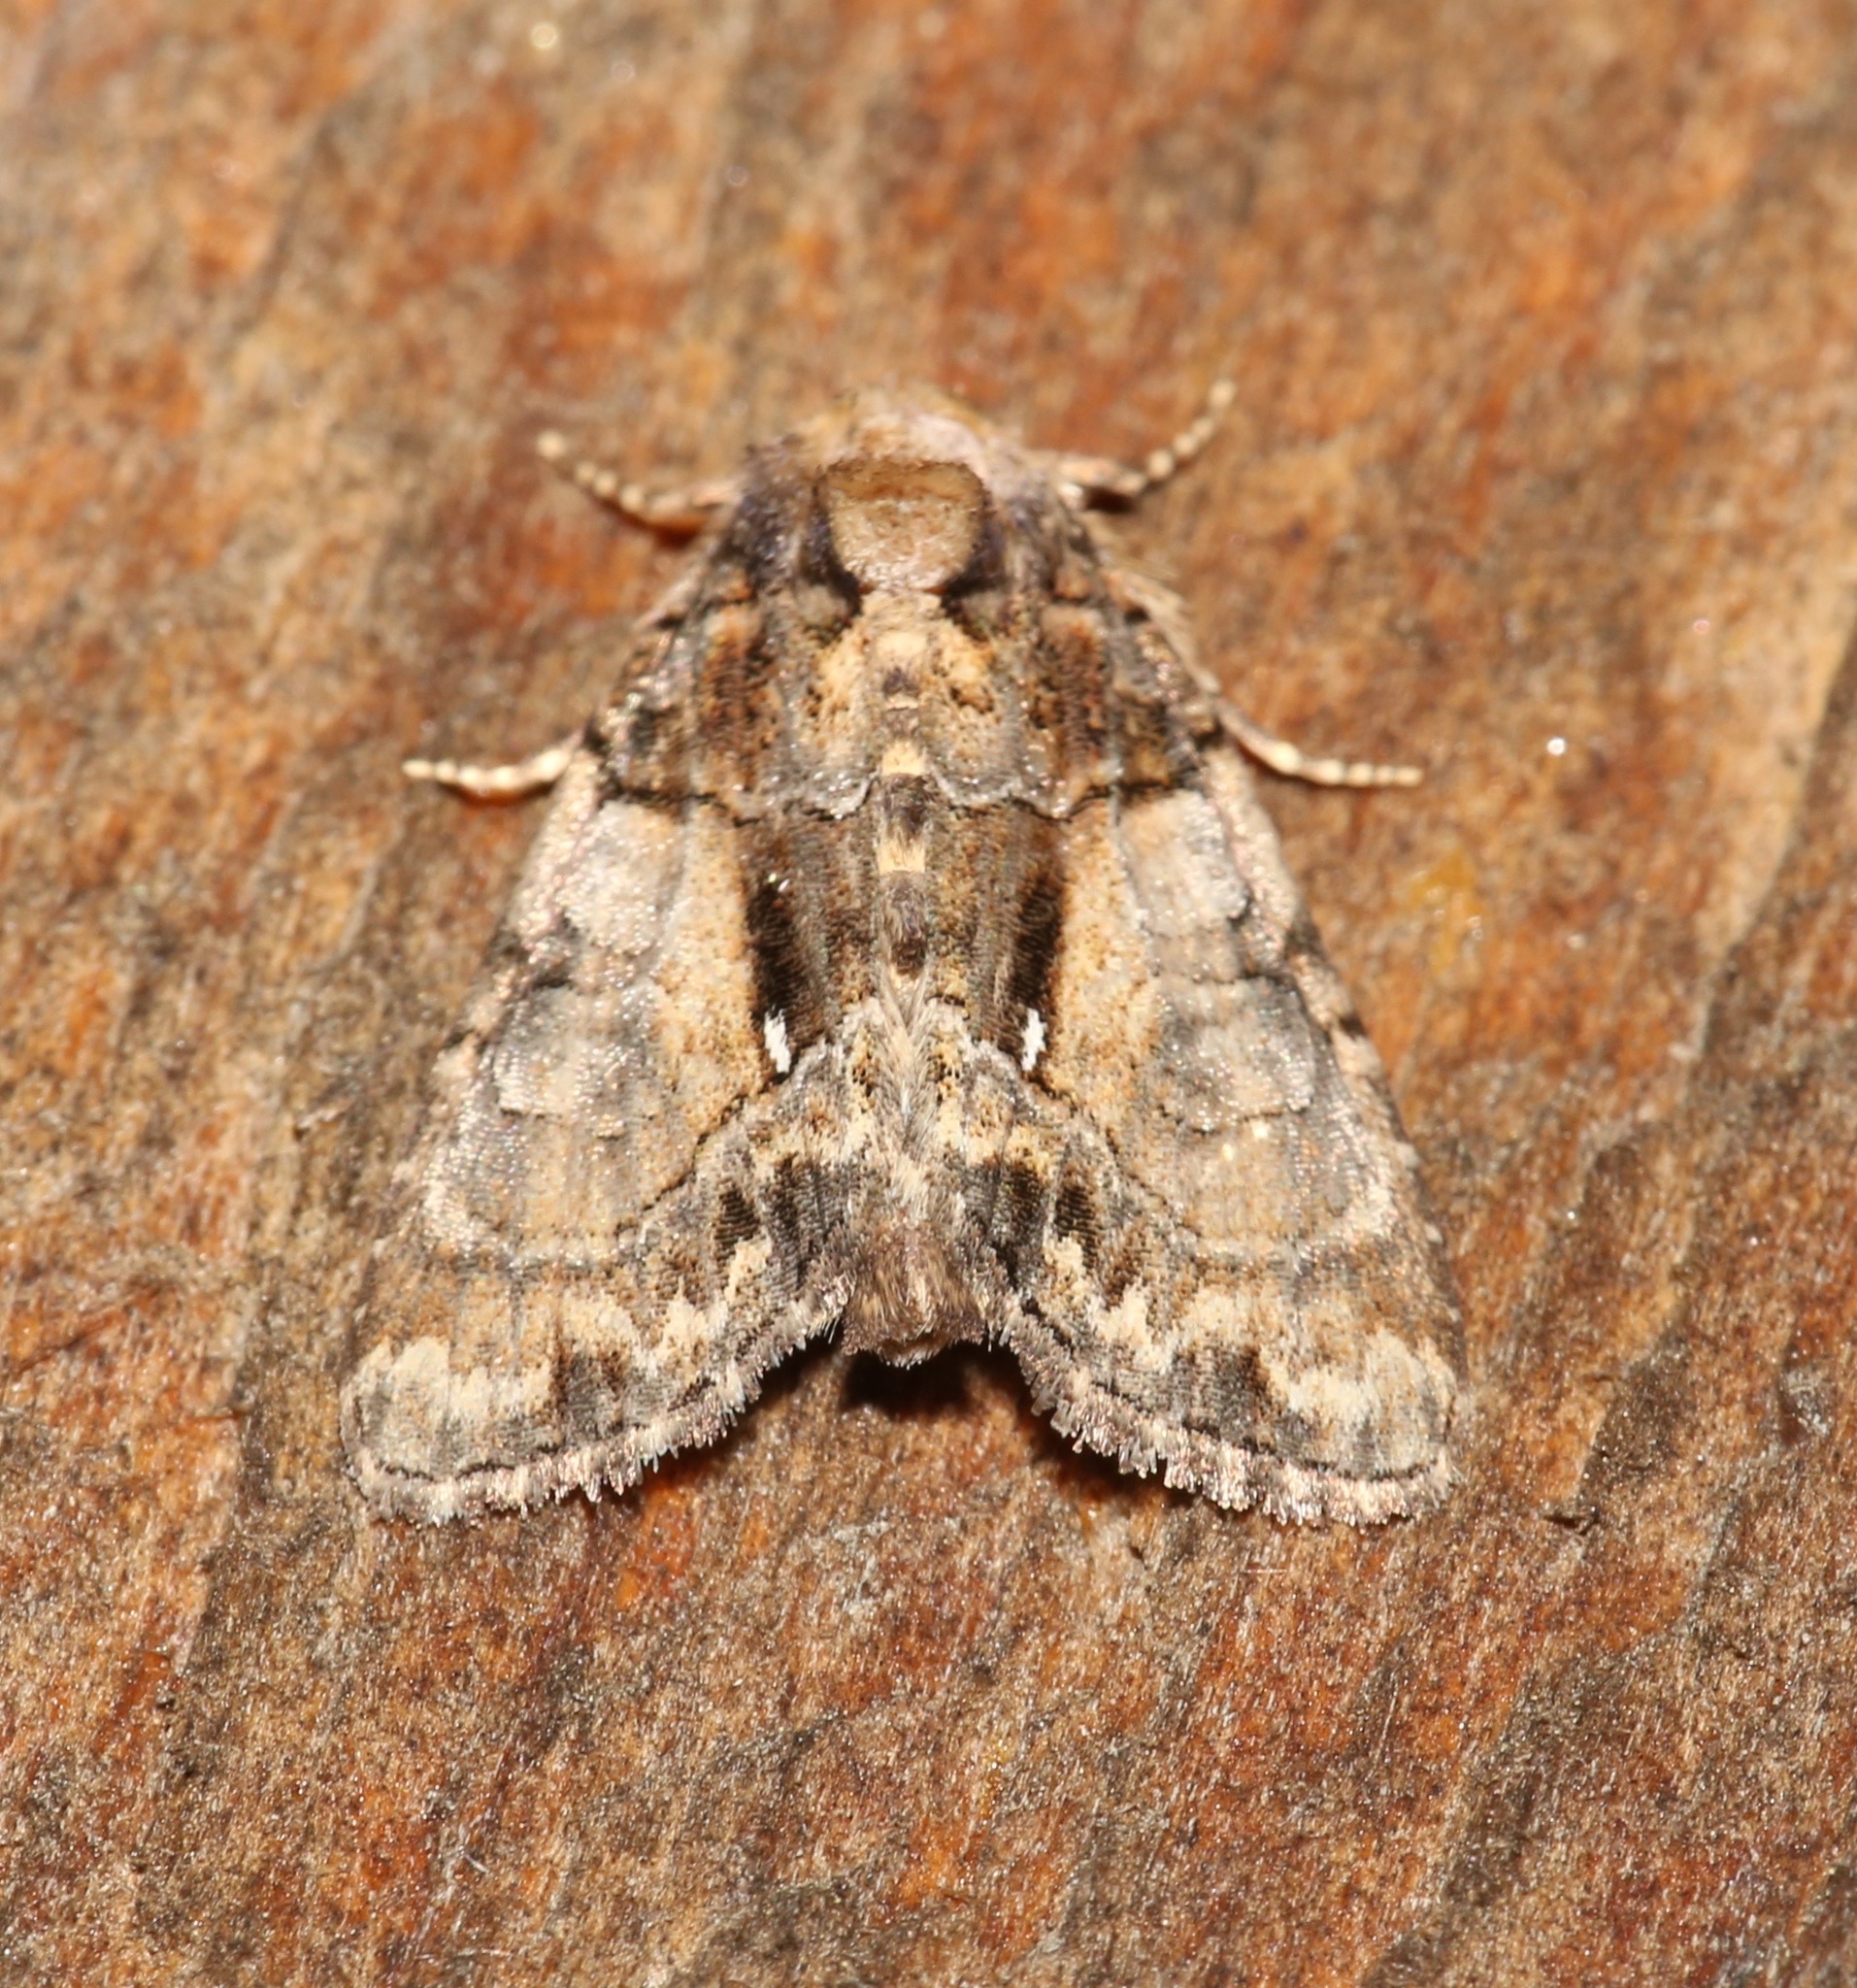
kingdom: Animalia
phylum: Arthropoda
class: Insecta
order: Lepidoptera
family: Noctuidae
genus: Chytonix
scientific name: Chytonix palliatricula
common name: Cloaked marvel
